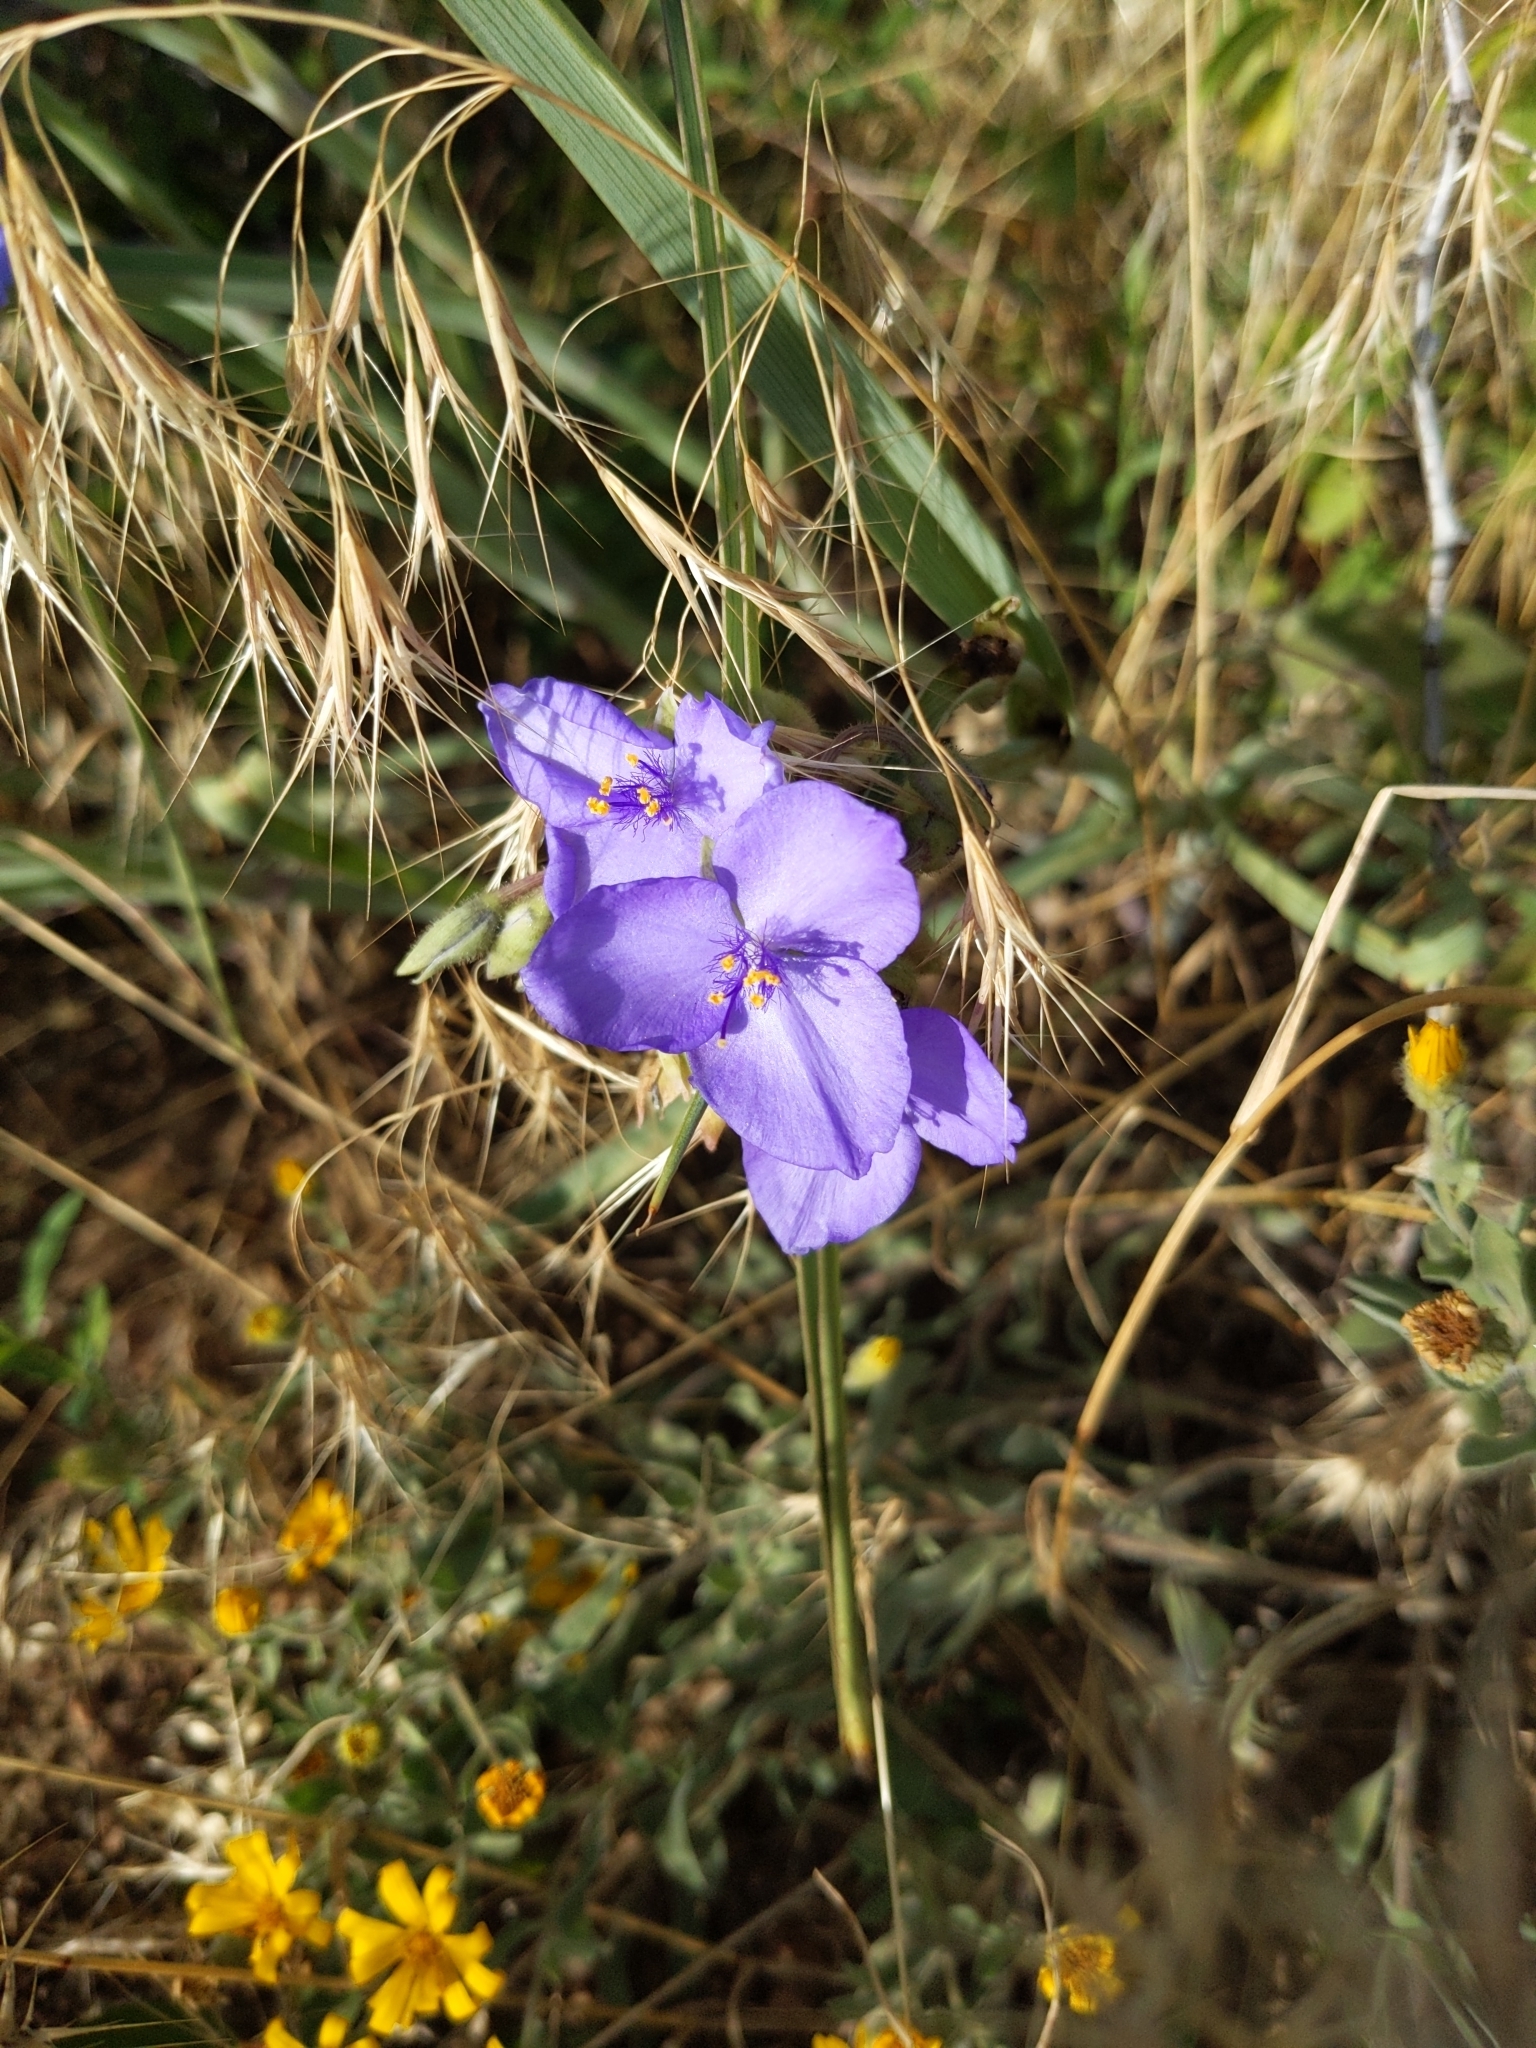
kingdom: Plantae
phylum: Tracheophyta
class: Liliopsida
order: Commelinales
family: Commelinaceae
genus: Tradescantia
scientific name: Tradescantia occidentalis
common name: Prairie spiderwort
